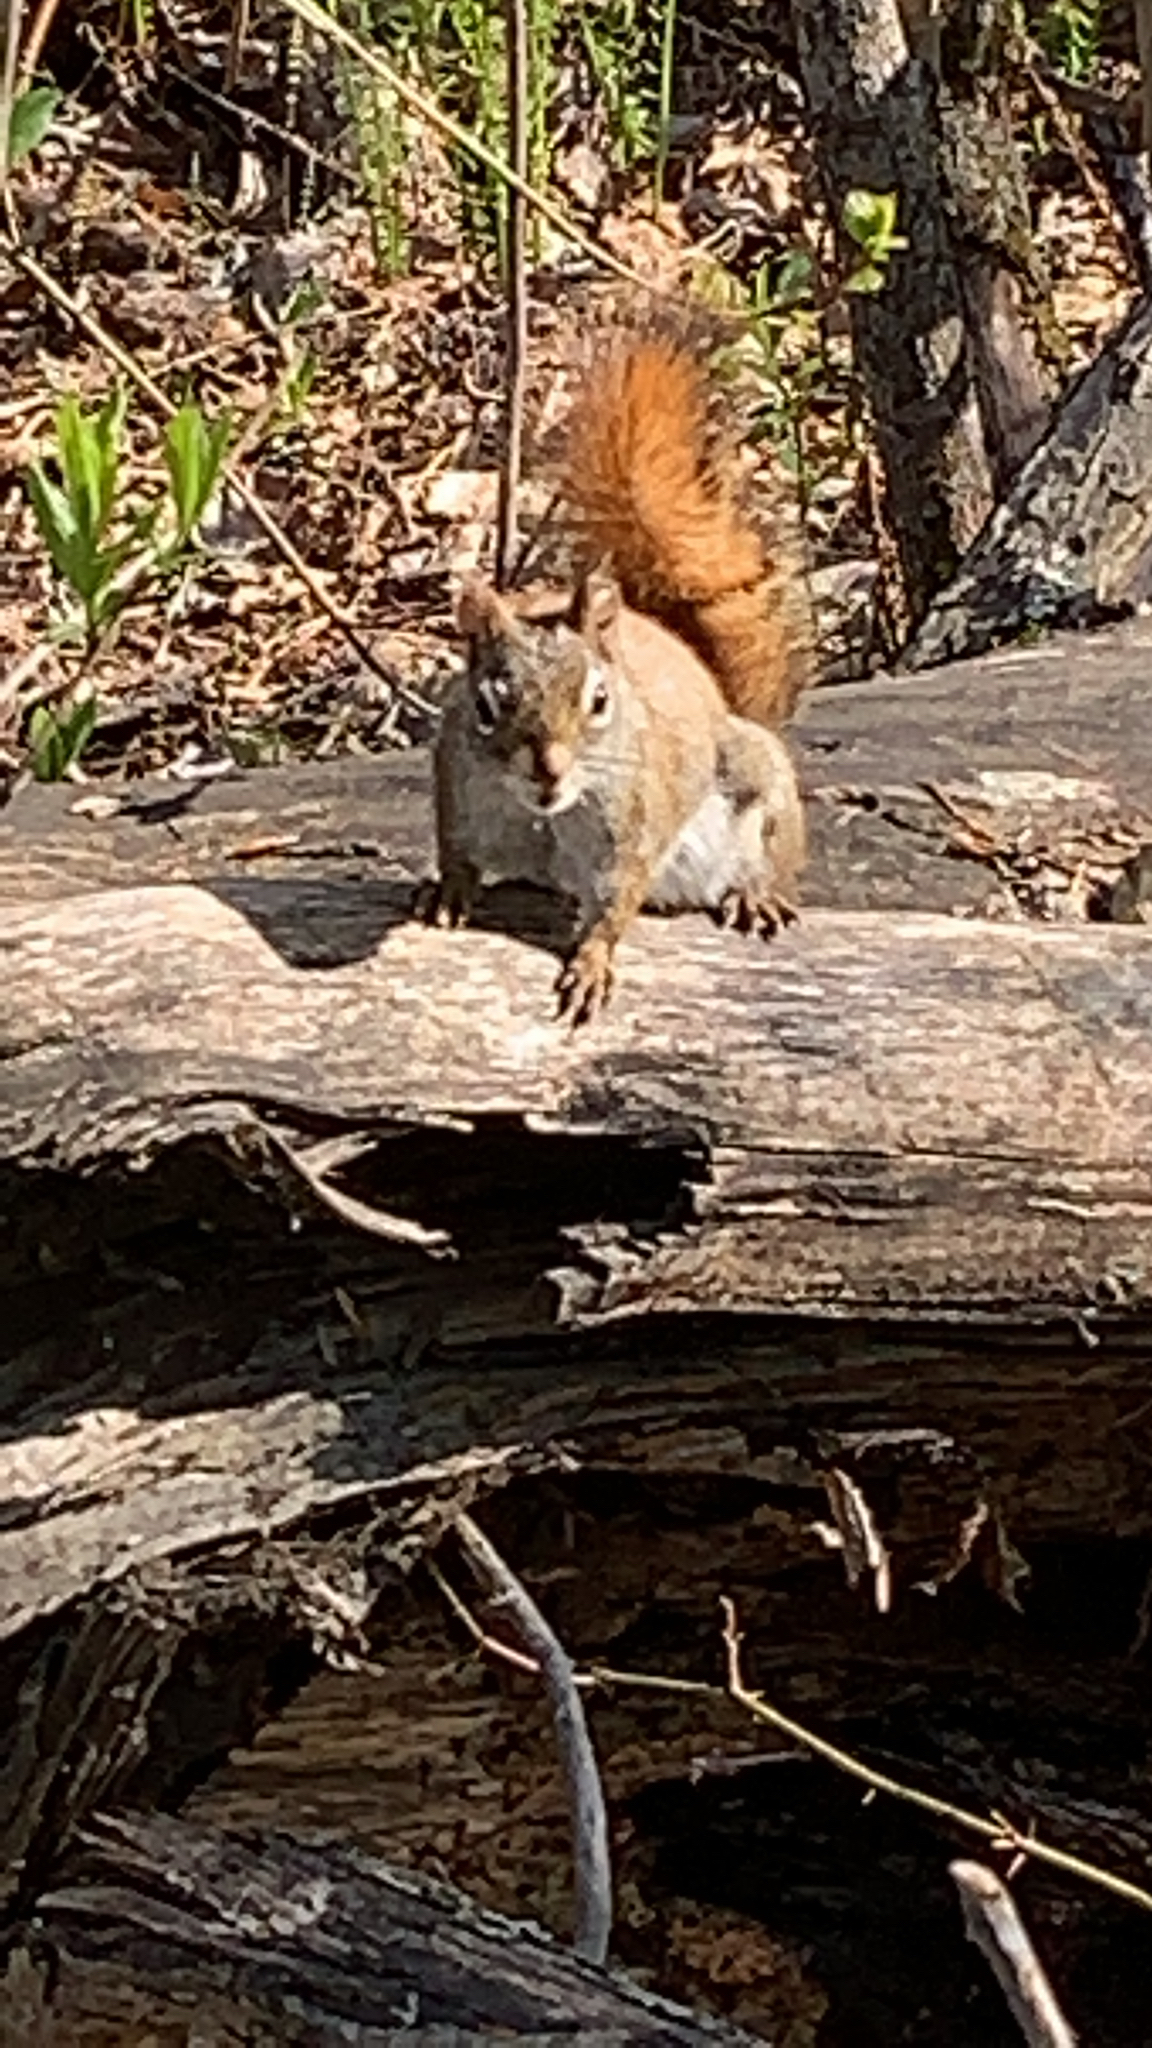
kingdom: Animalia
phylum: Chordata
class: Mammalia
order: Rodentia
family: Sciuridae
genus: Tamiasciurus
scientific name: Tamiasciurus hudsonicus
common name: Red squirrel
